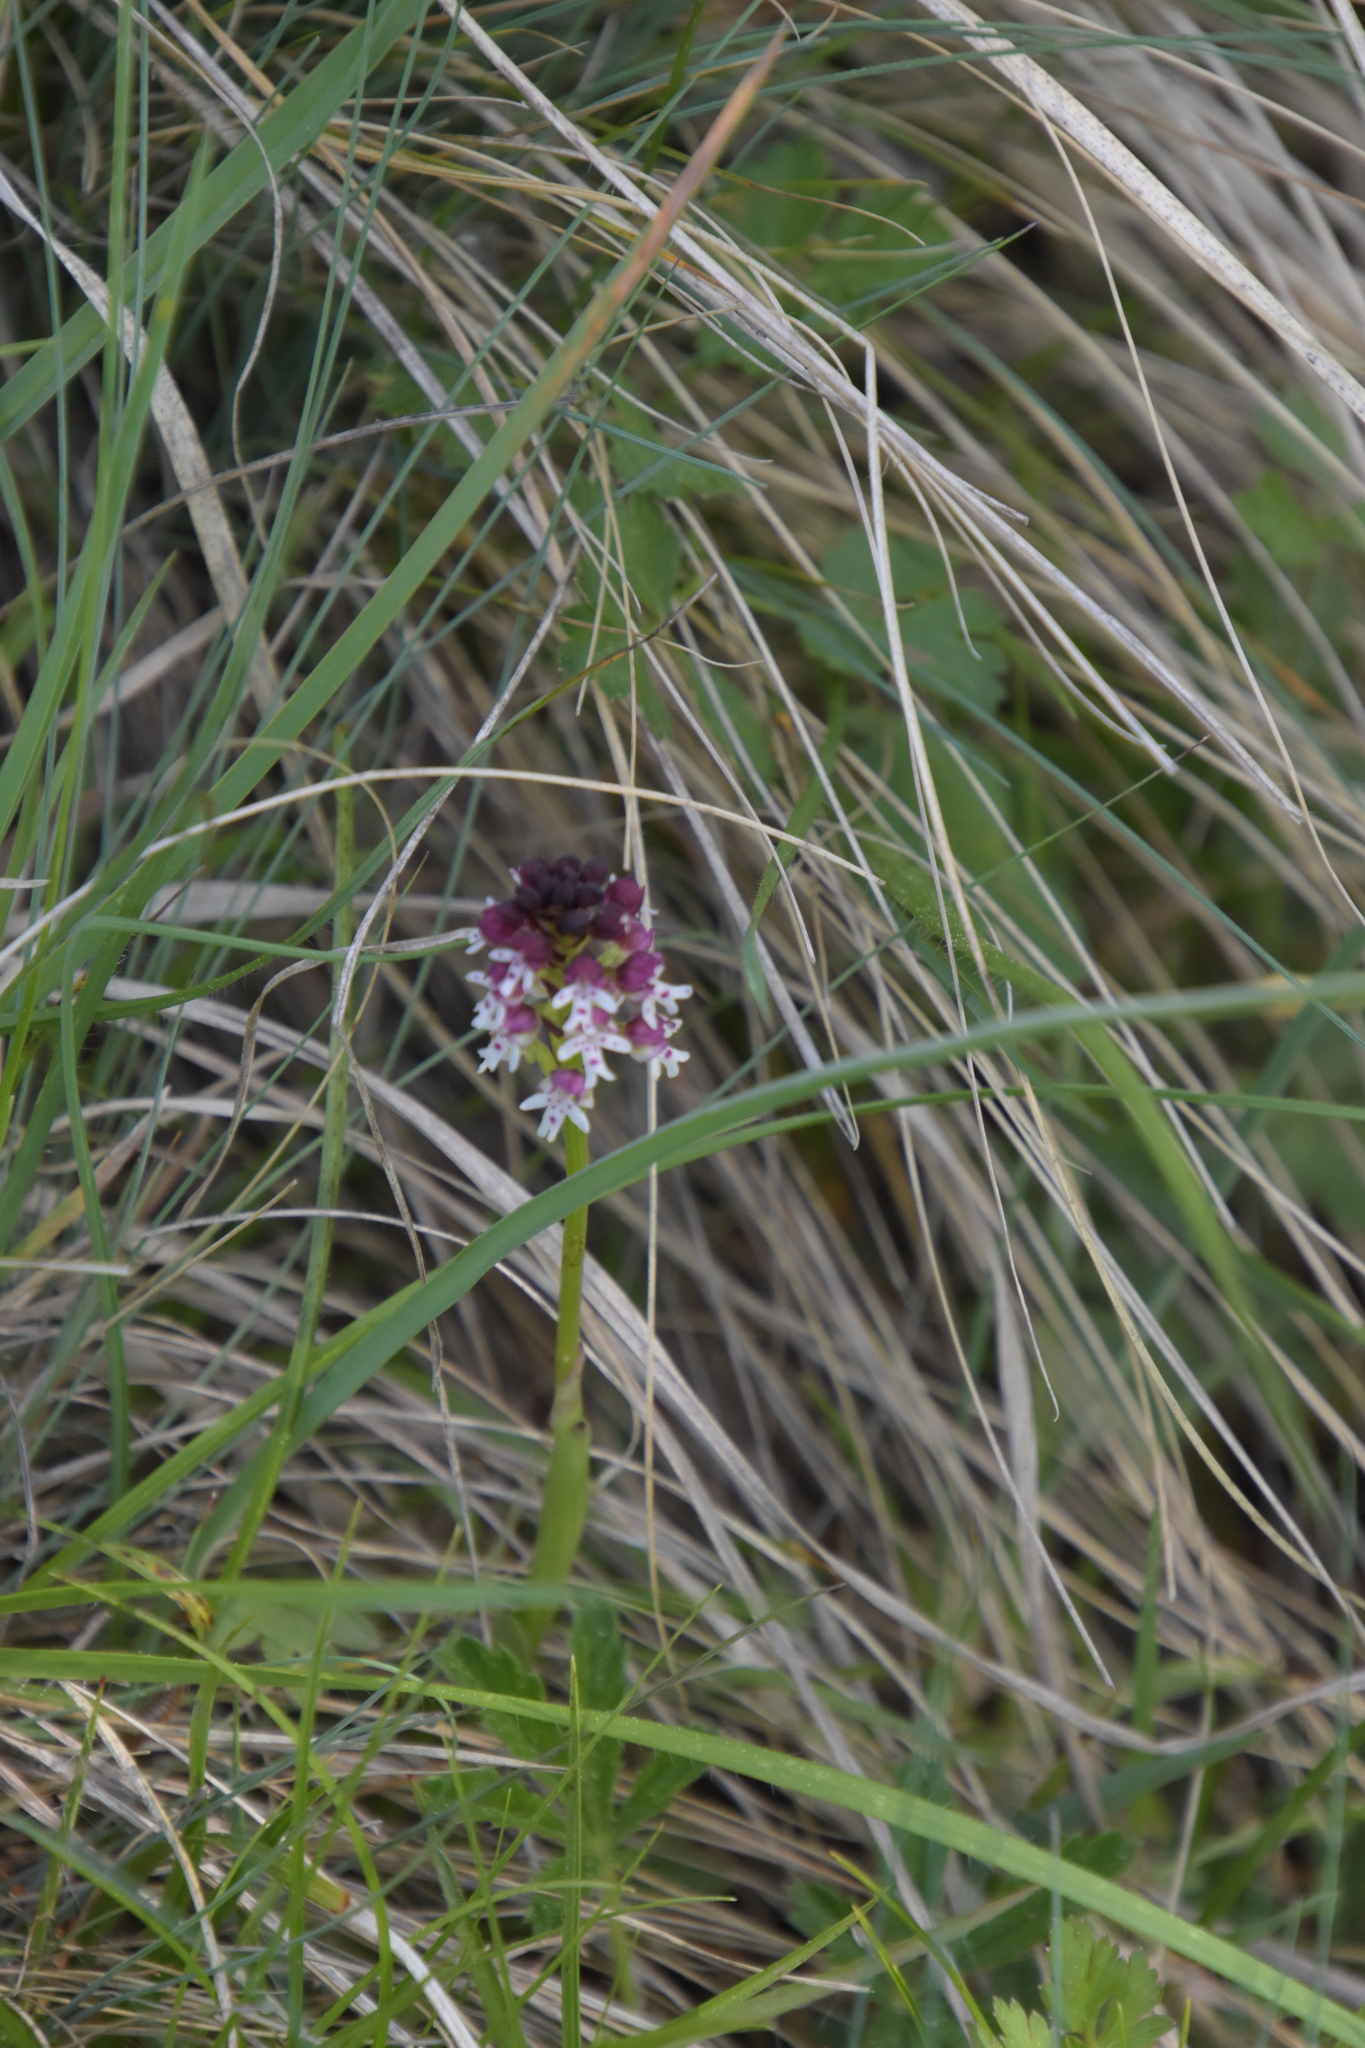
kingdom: Plantae
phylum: Tracheophyta
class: Liliopsida
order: Asparagales
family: Orchidaceae
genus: Neotinea
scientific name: Neotinea ustulata
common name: Burnt orchid
